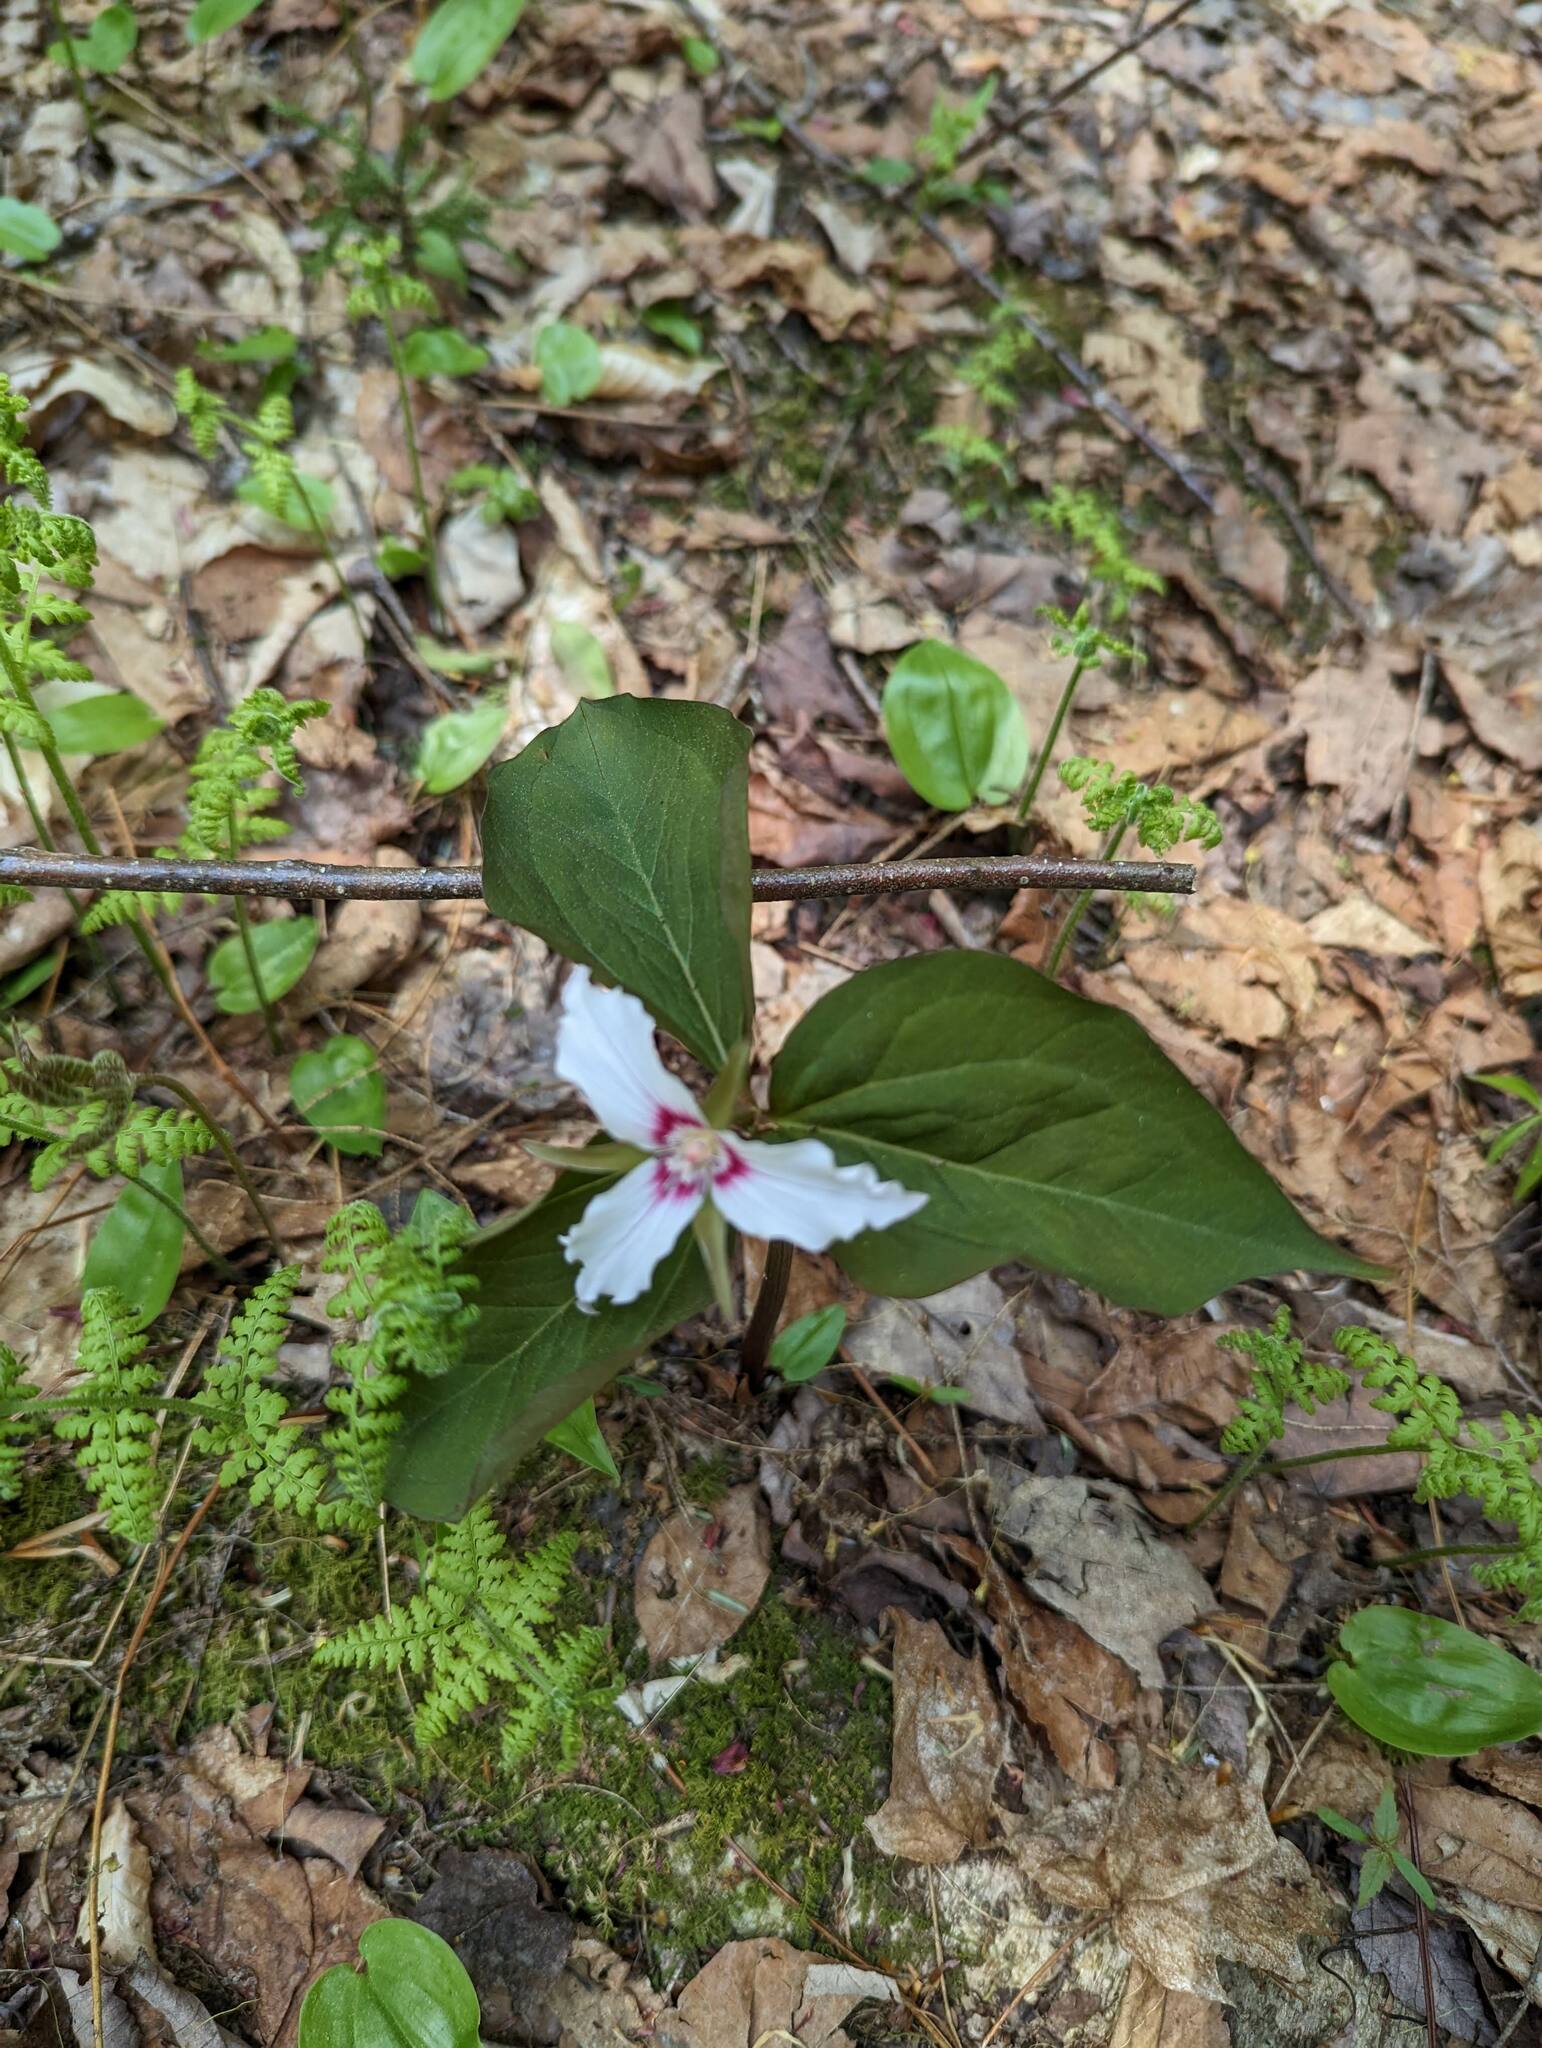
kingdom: Plantae
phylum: Tracheophyta
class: Liliopsida
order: Liliales
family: Melanthiaceae
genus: Trillium
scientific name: Trillium undulatum
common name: Paint trillium
